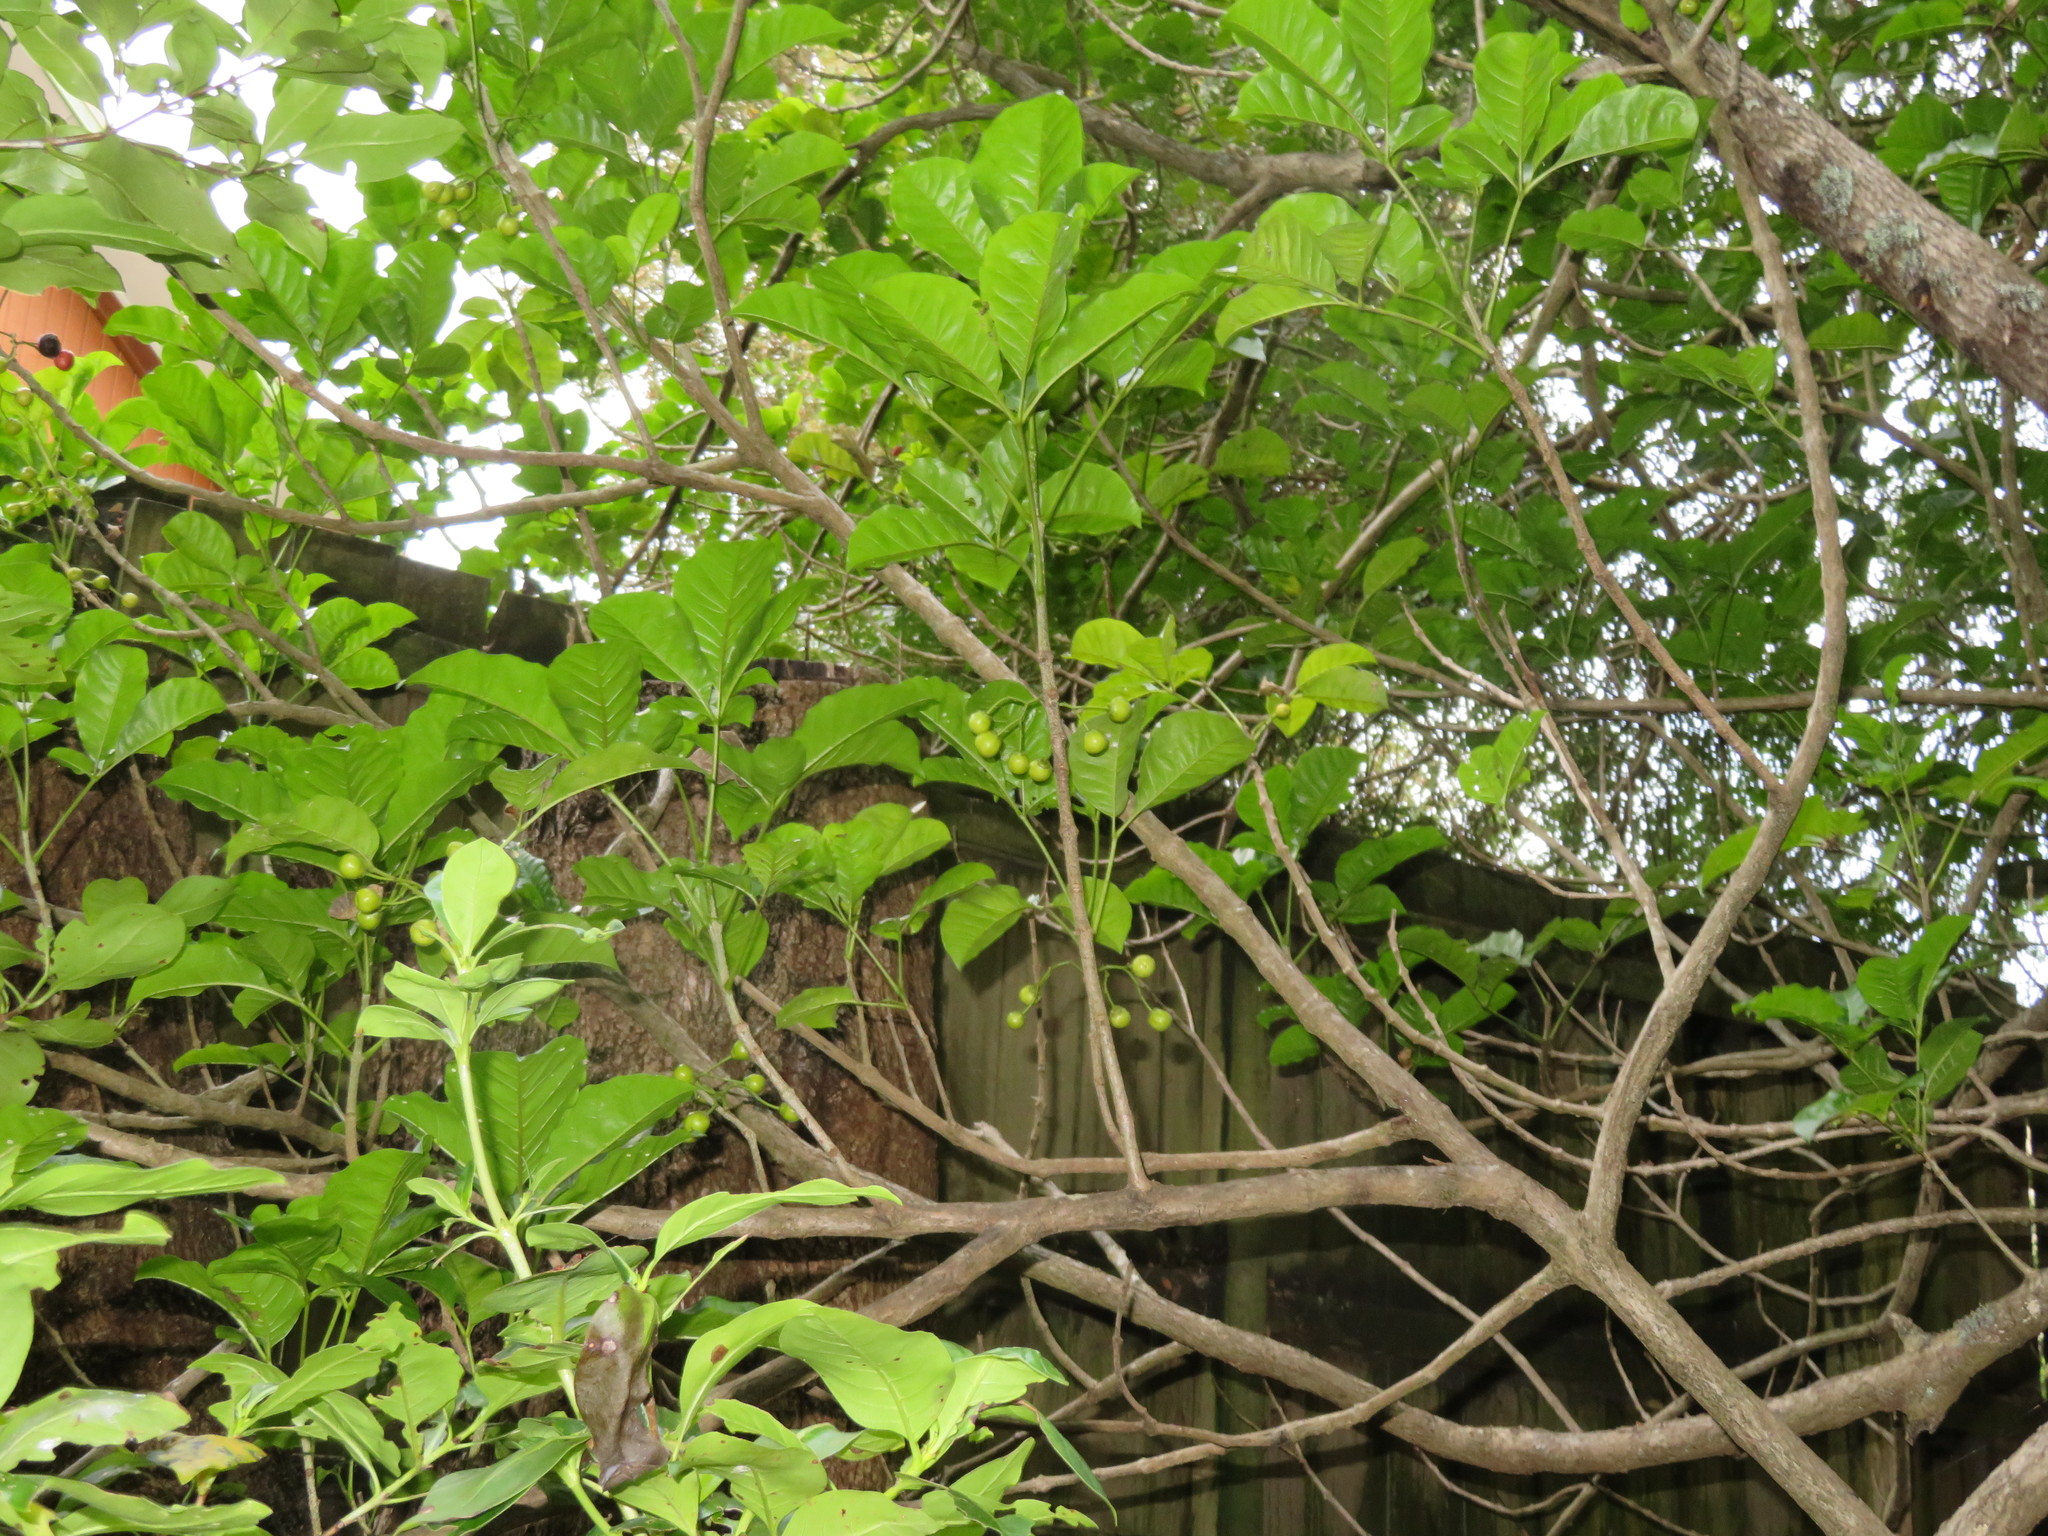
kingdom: Plantae
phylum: Tracheophyta
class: Magnoliopsida
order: Lamiales
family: Lamiaceae
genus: Vitex
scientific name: Vitex lucens
